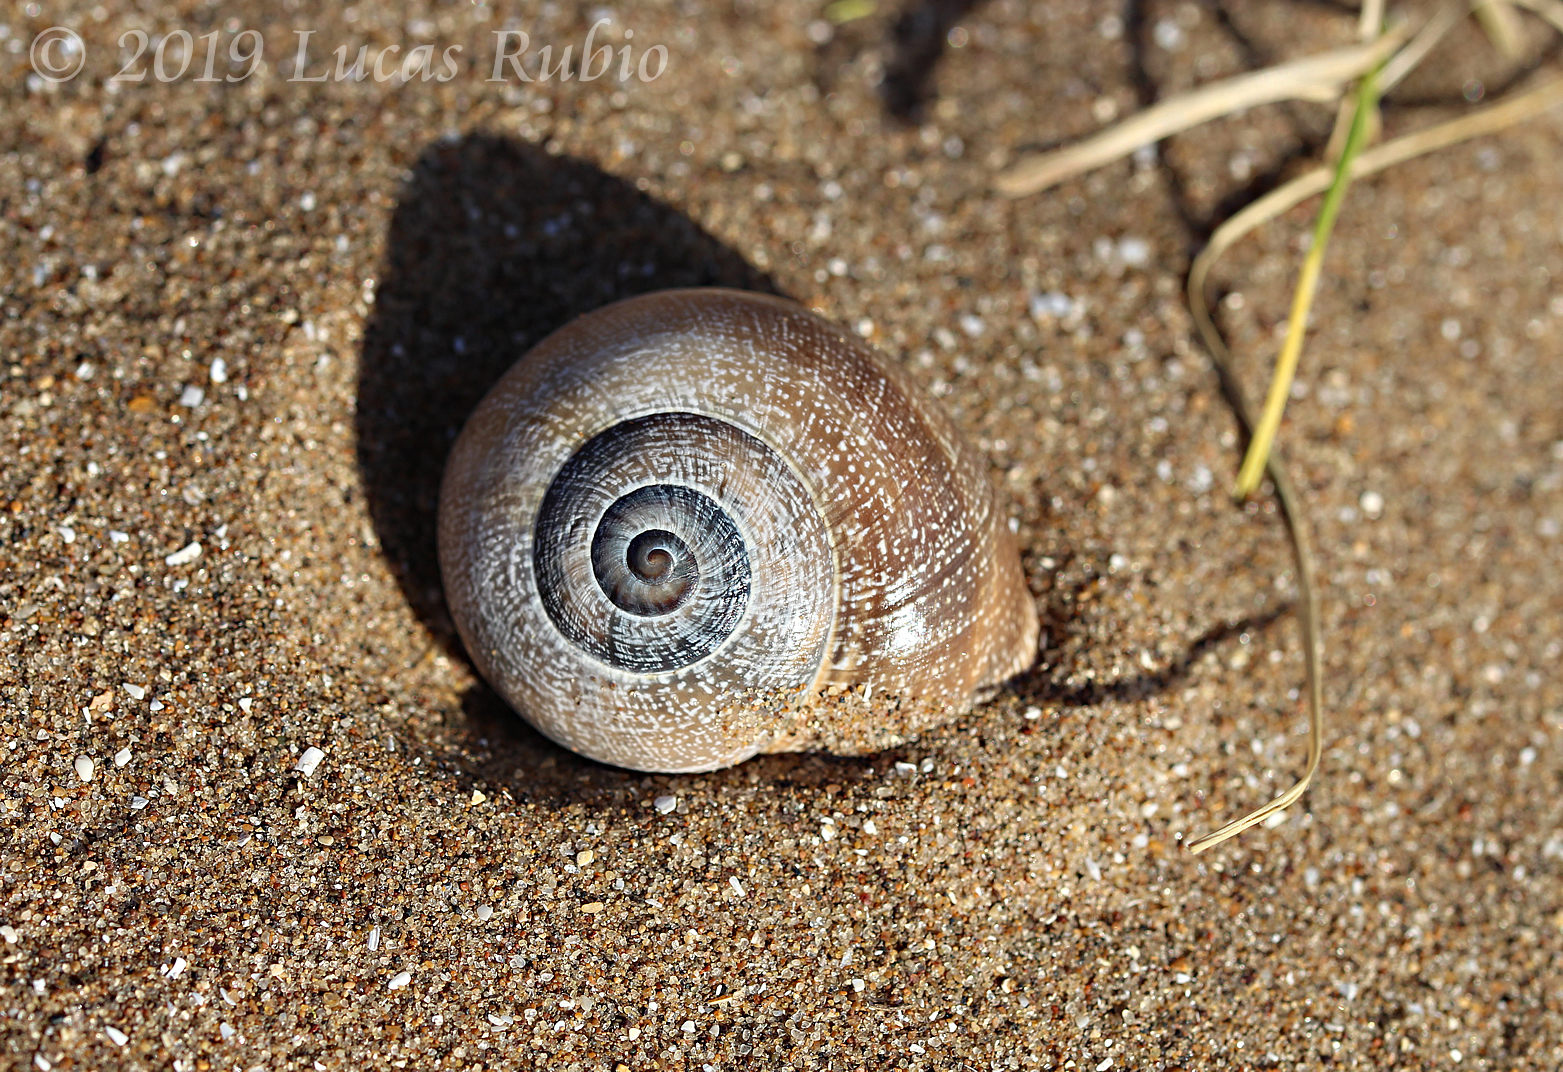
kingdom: Animalia
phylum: Mollusca
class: Gastropoda
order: Stylommatophora
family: Helicidae
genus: Otala
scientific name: Otala punctata
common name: Milk snail
